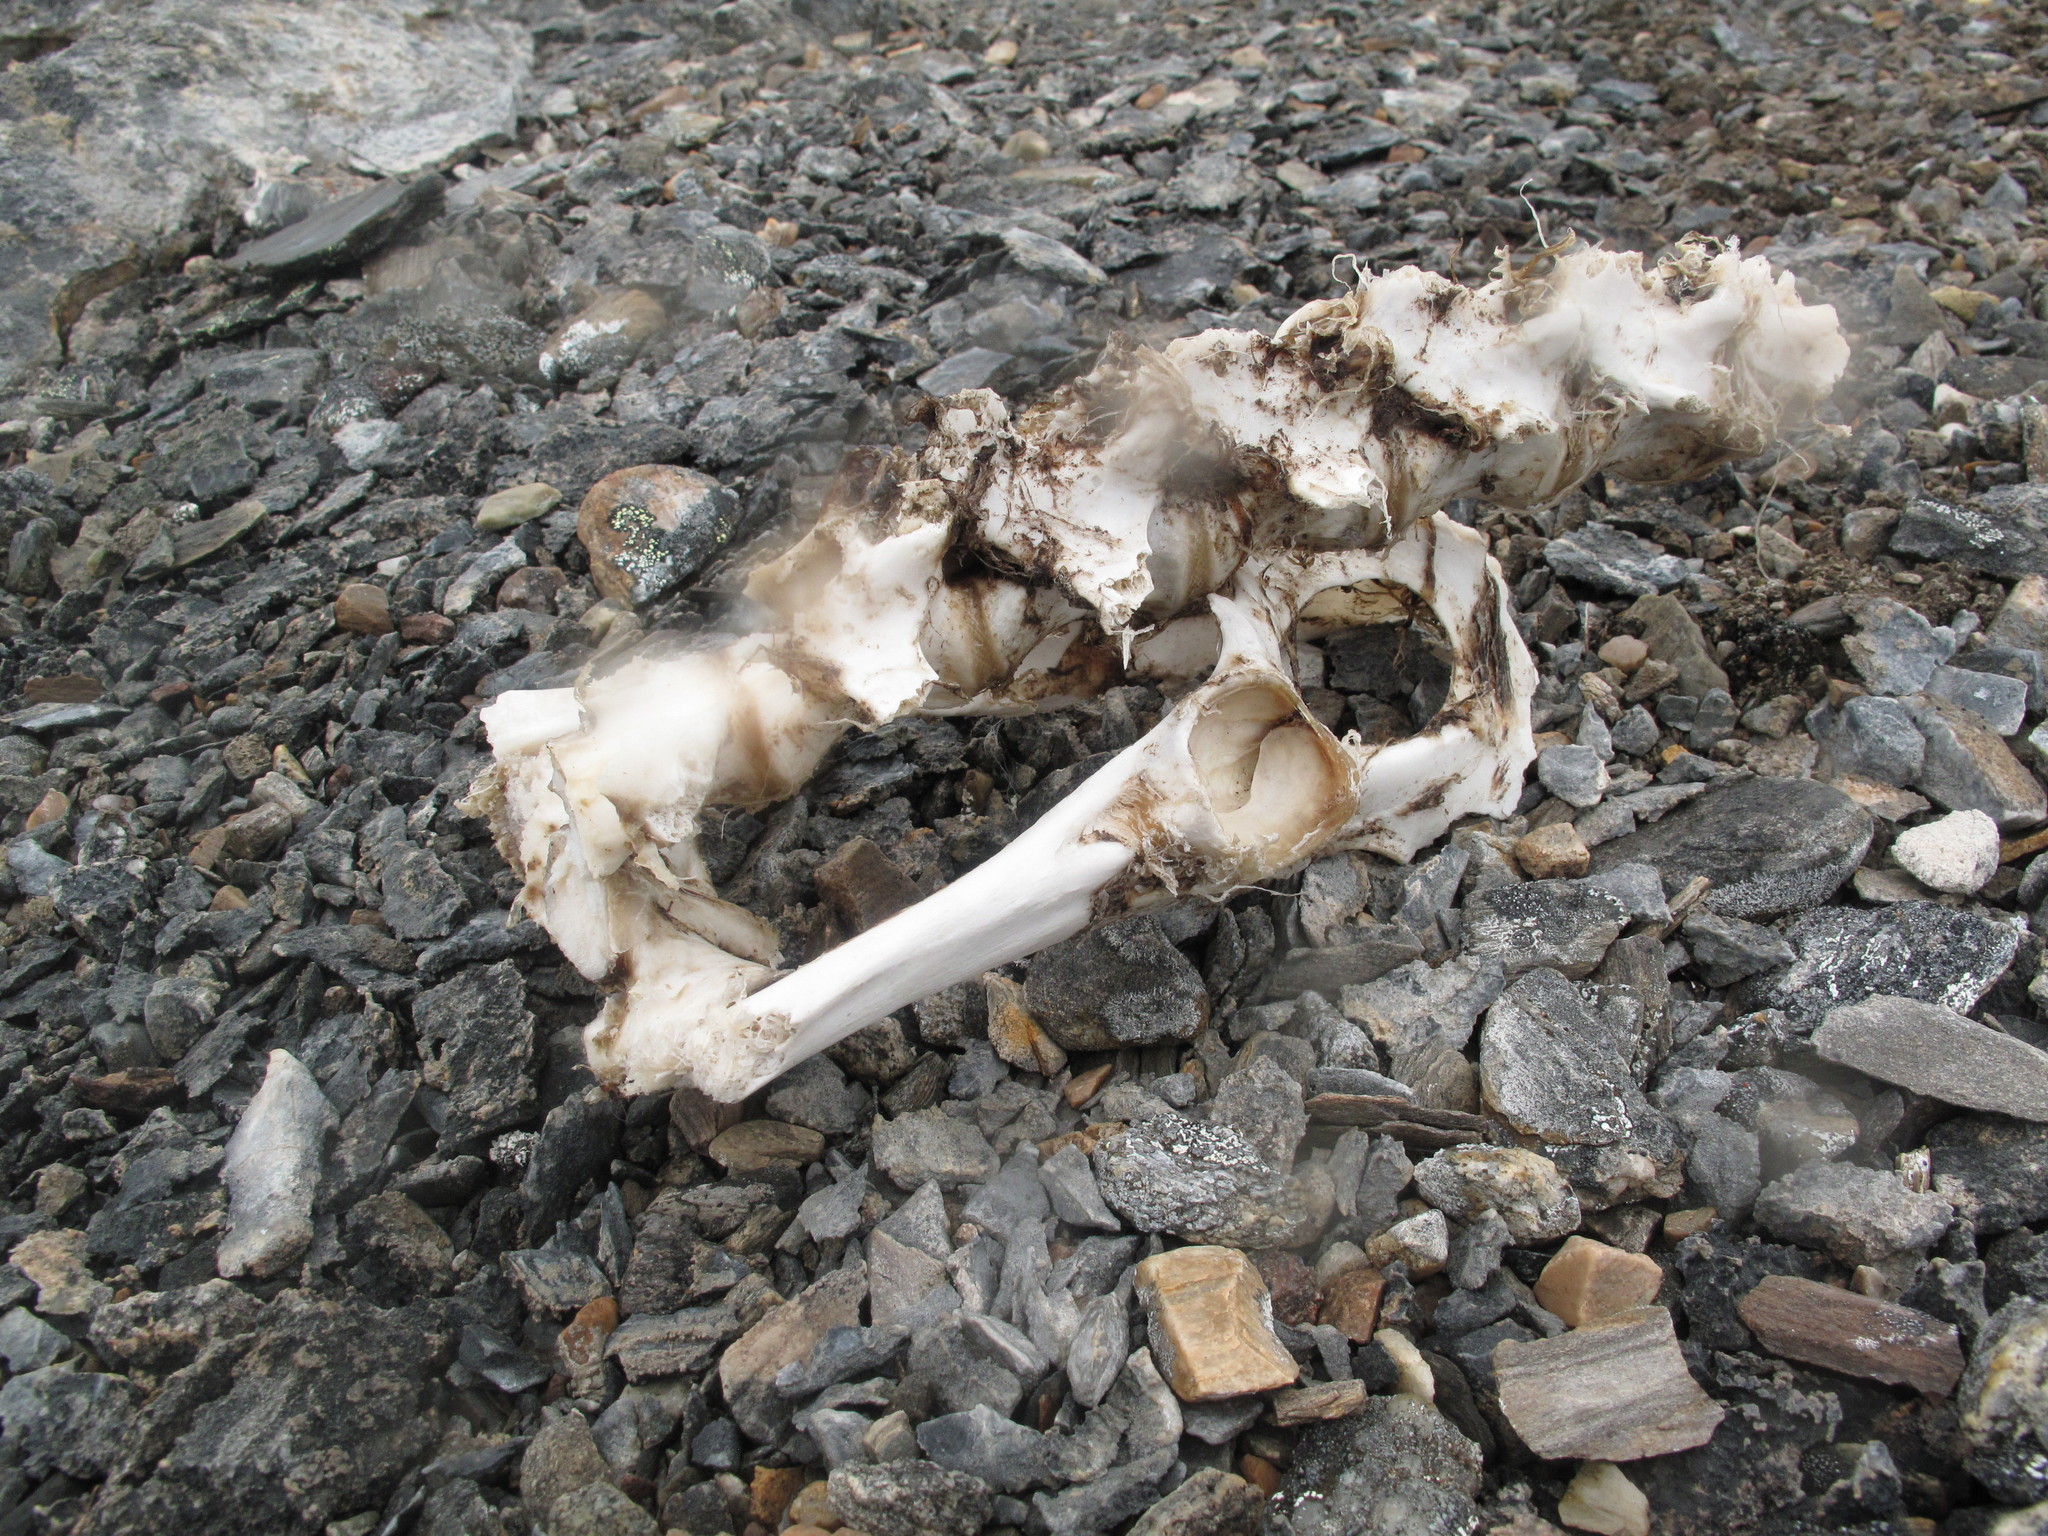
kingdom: Animalia
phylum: Chordata
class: Mammalia
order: Artiodactyla
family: Cervidae
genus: Rangifer
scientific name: Rangifer tarandus
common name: Reindeer
